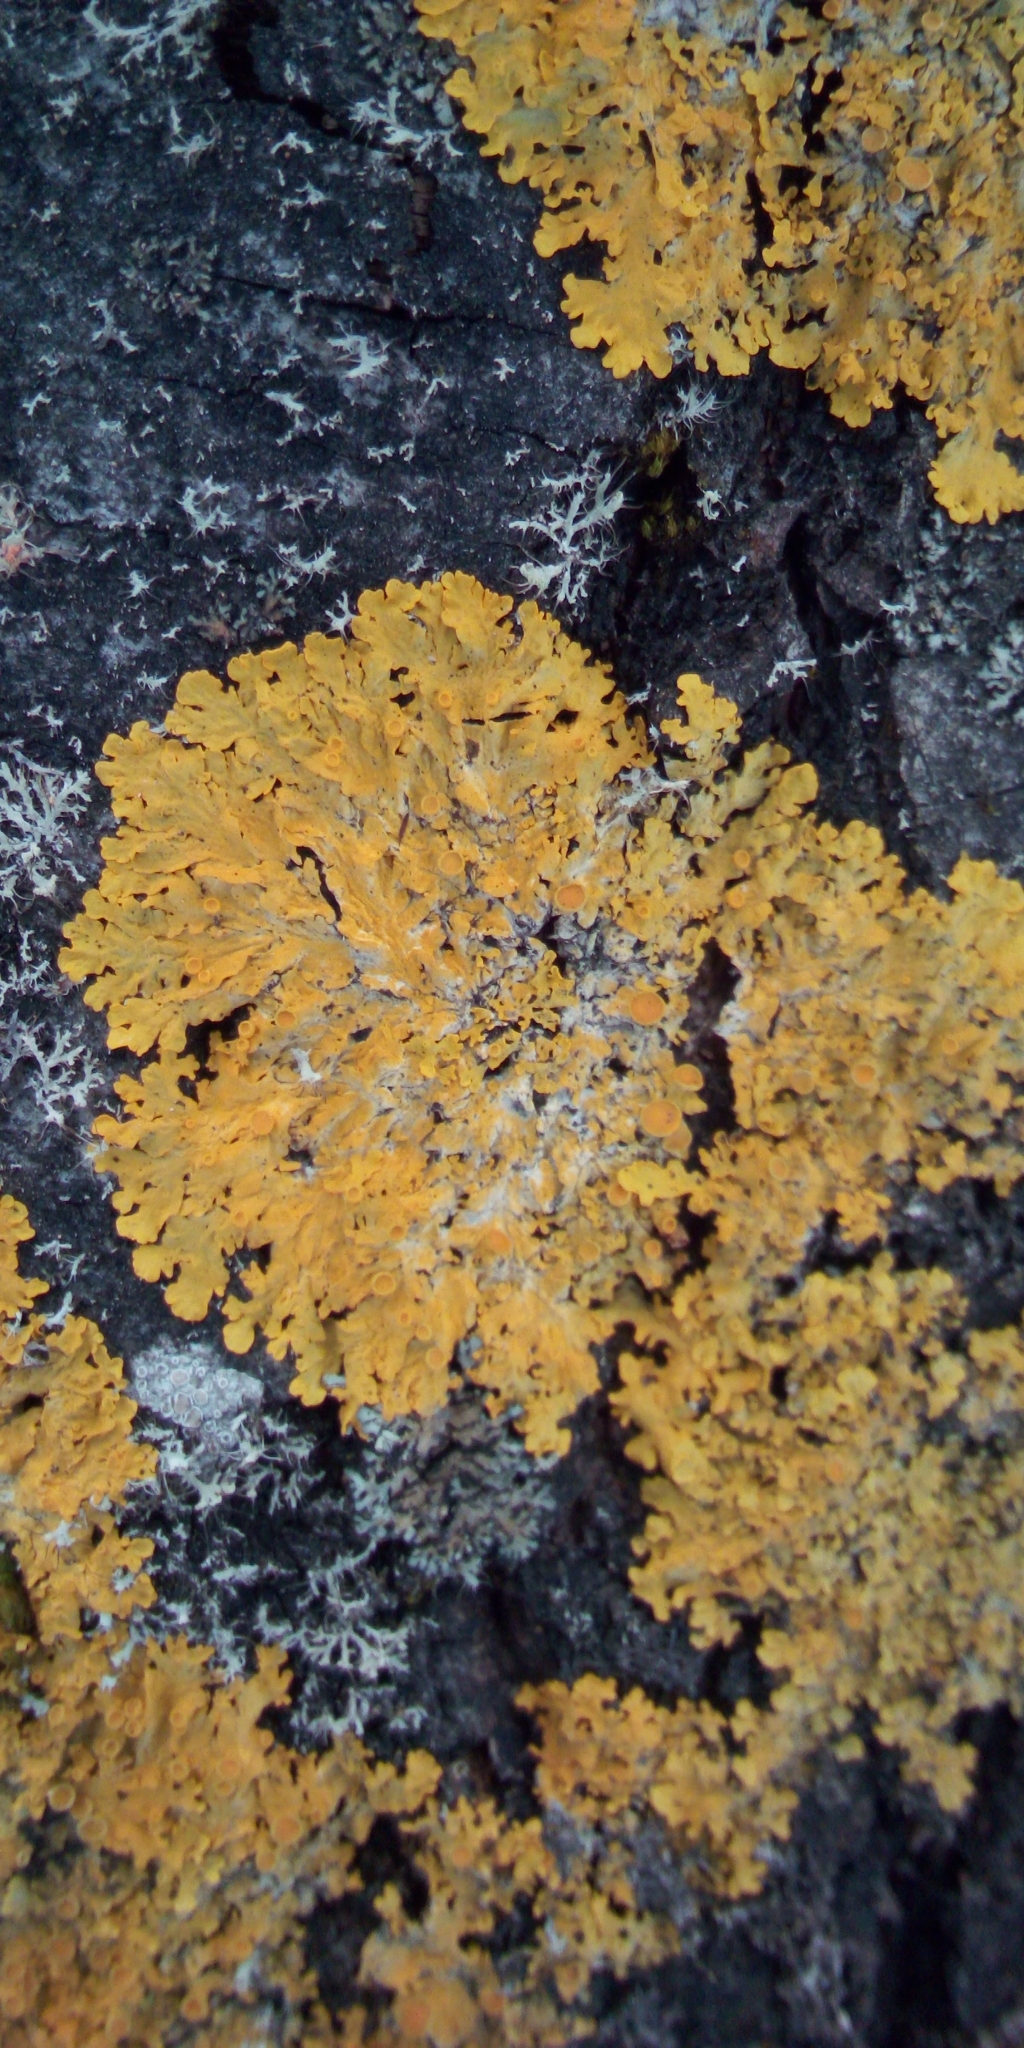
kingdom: Fungi
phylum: Ascomycota
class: Lecanoromycetes
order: Teloschistales
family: Teloschistaceae
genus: Xanthoria
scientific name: Xanthoria parietina
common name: Common orange lichen
